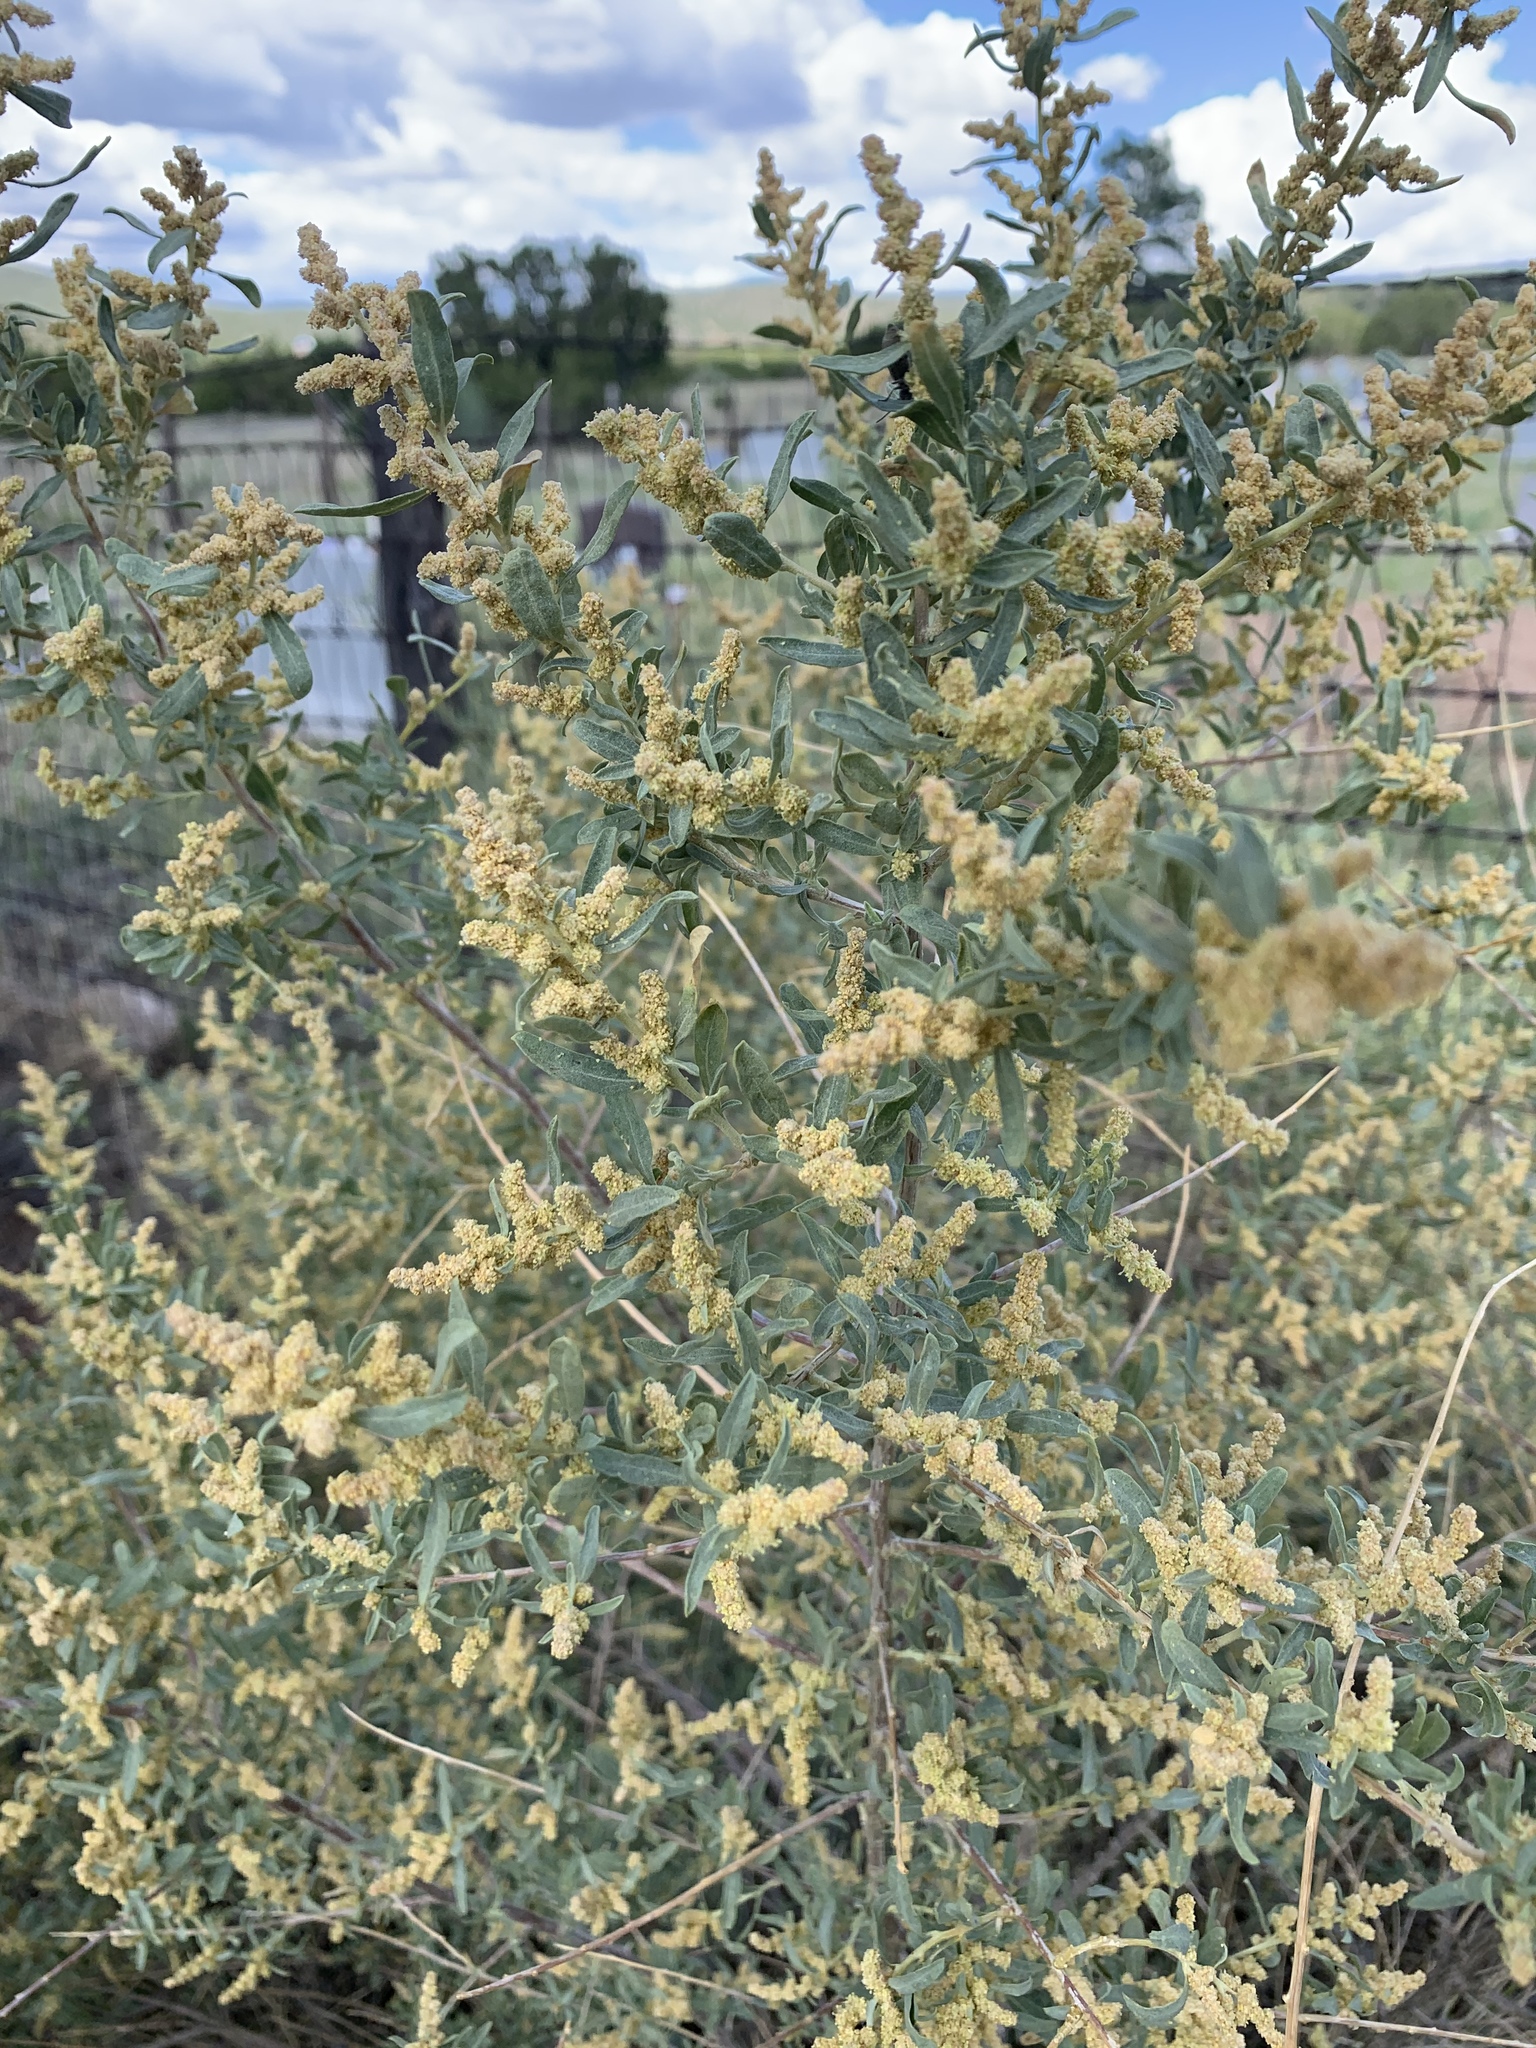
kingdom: Plantae
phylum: Tracheophyta
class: Magnoliopsida
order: Caryophyllales
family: Amaranthaceae
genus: Atriplex
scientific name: Atriplex canescens
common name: Four-wing saltbush
